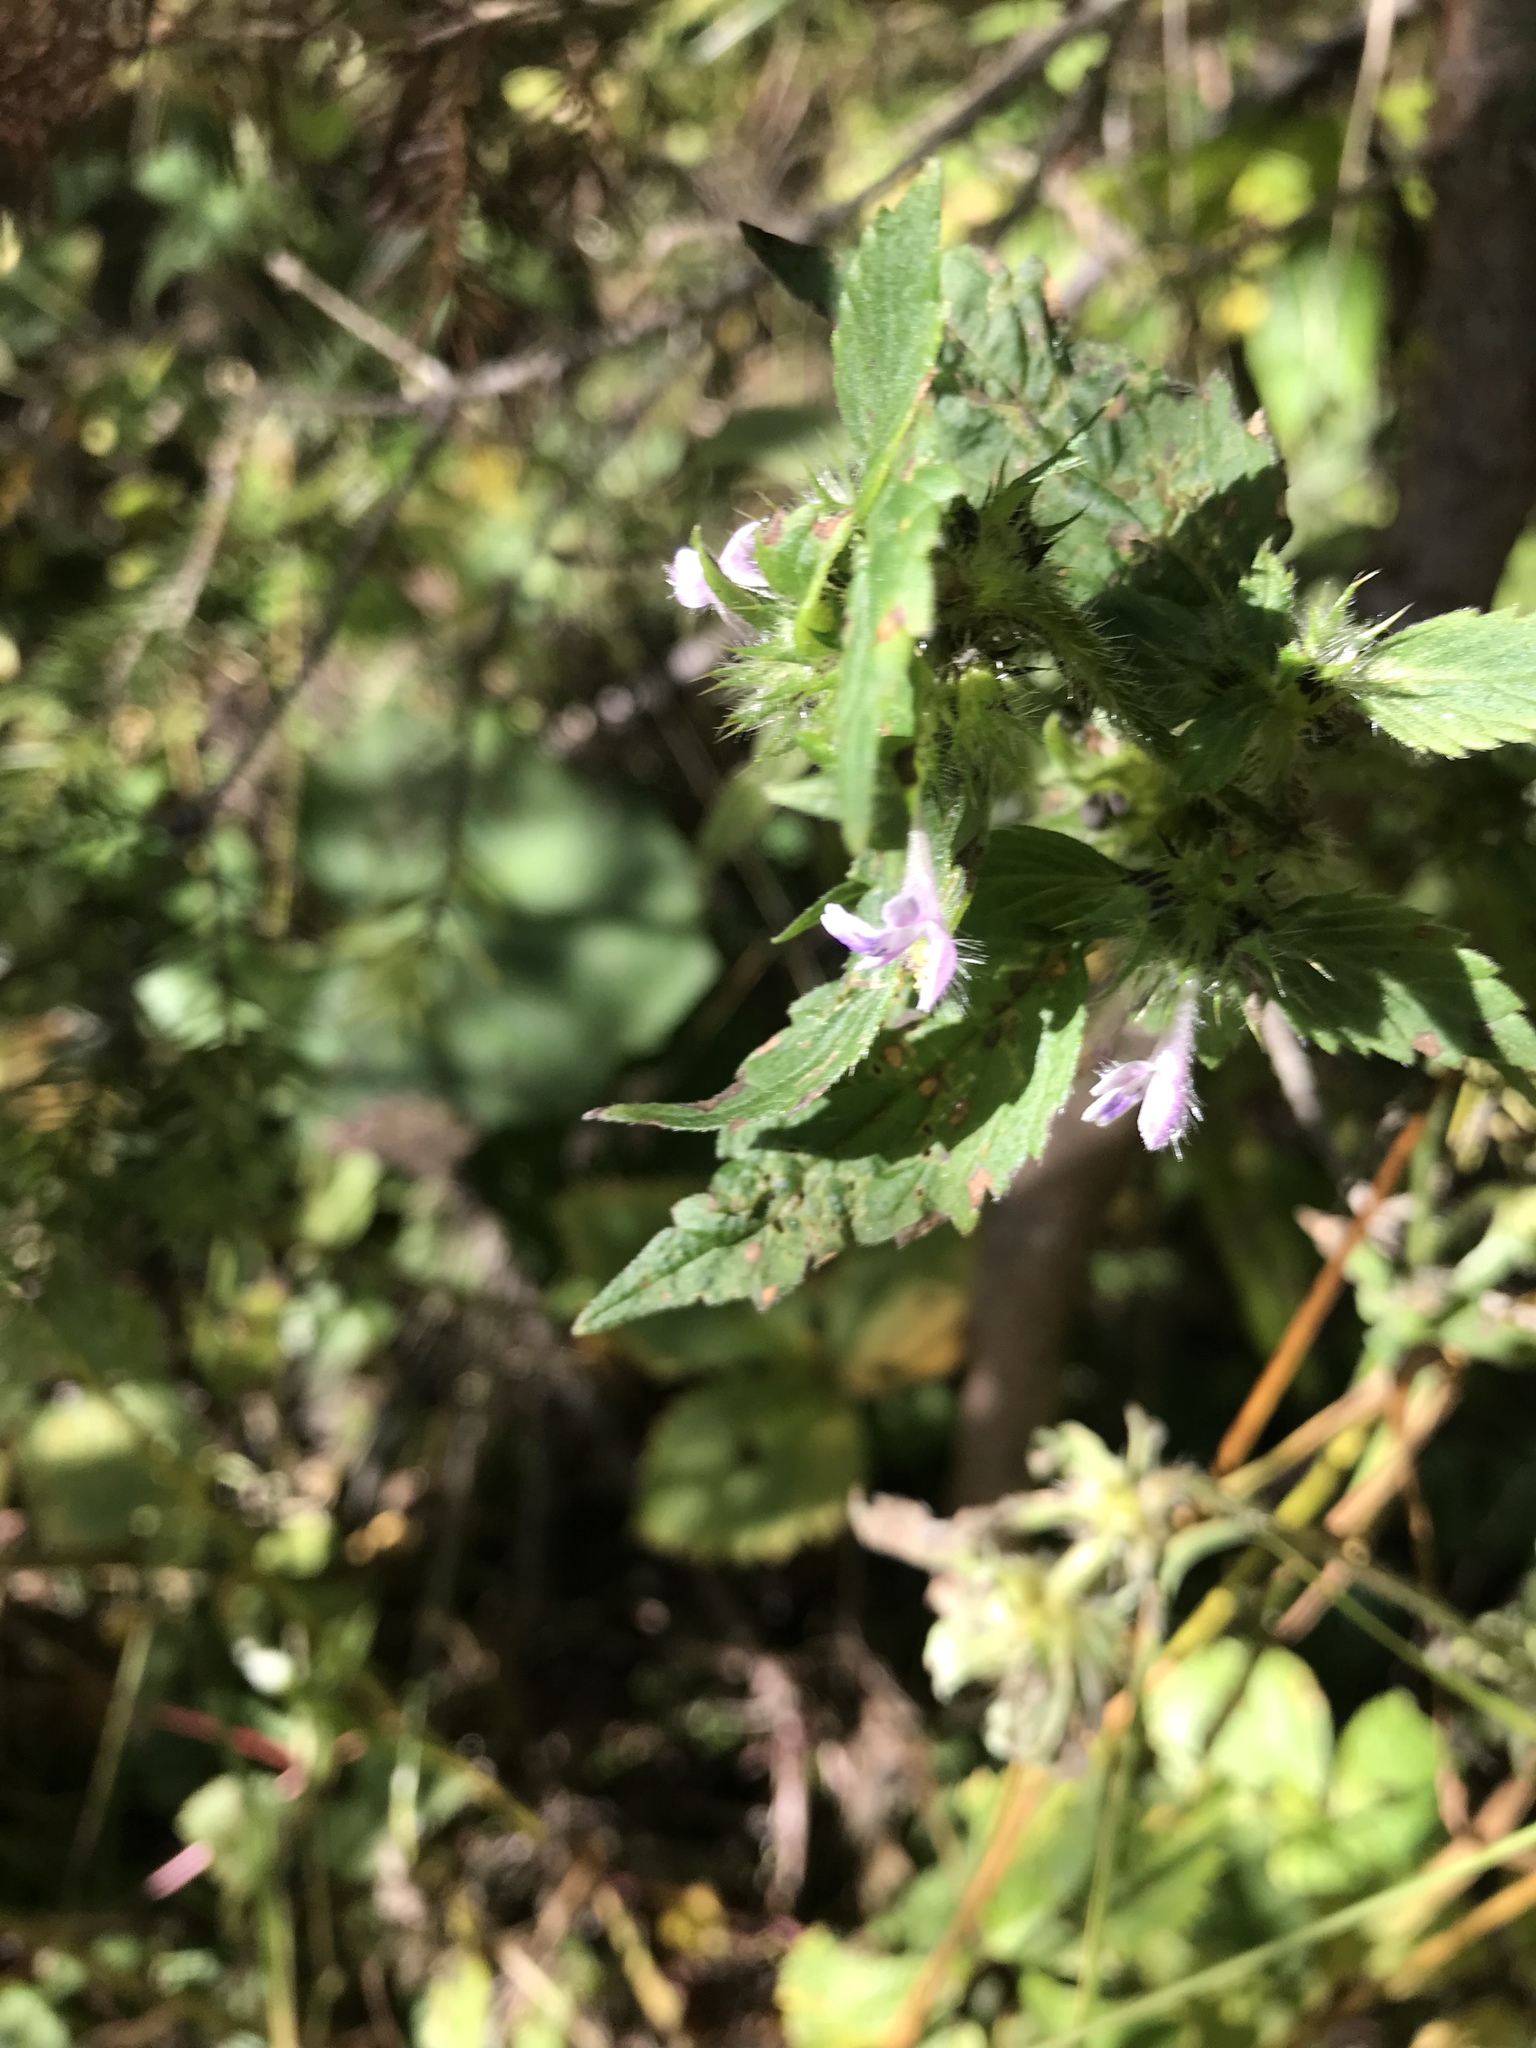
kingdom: Plantae
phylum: Tracheophyta
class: Magnoliopsida
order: Lamiales
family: Lamiaceae
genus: Galeopsis
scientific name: Galeopsis bifida
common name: Bifid hemp-nettle
